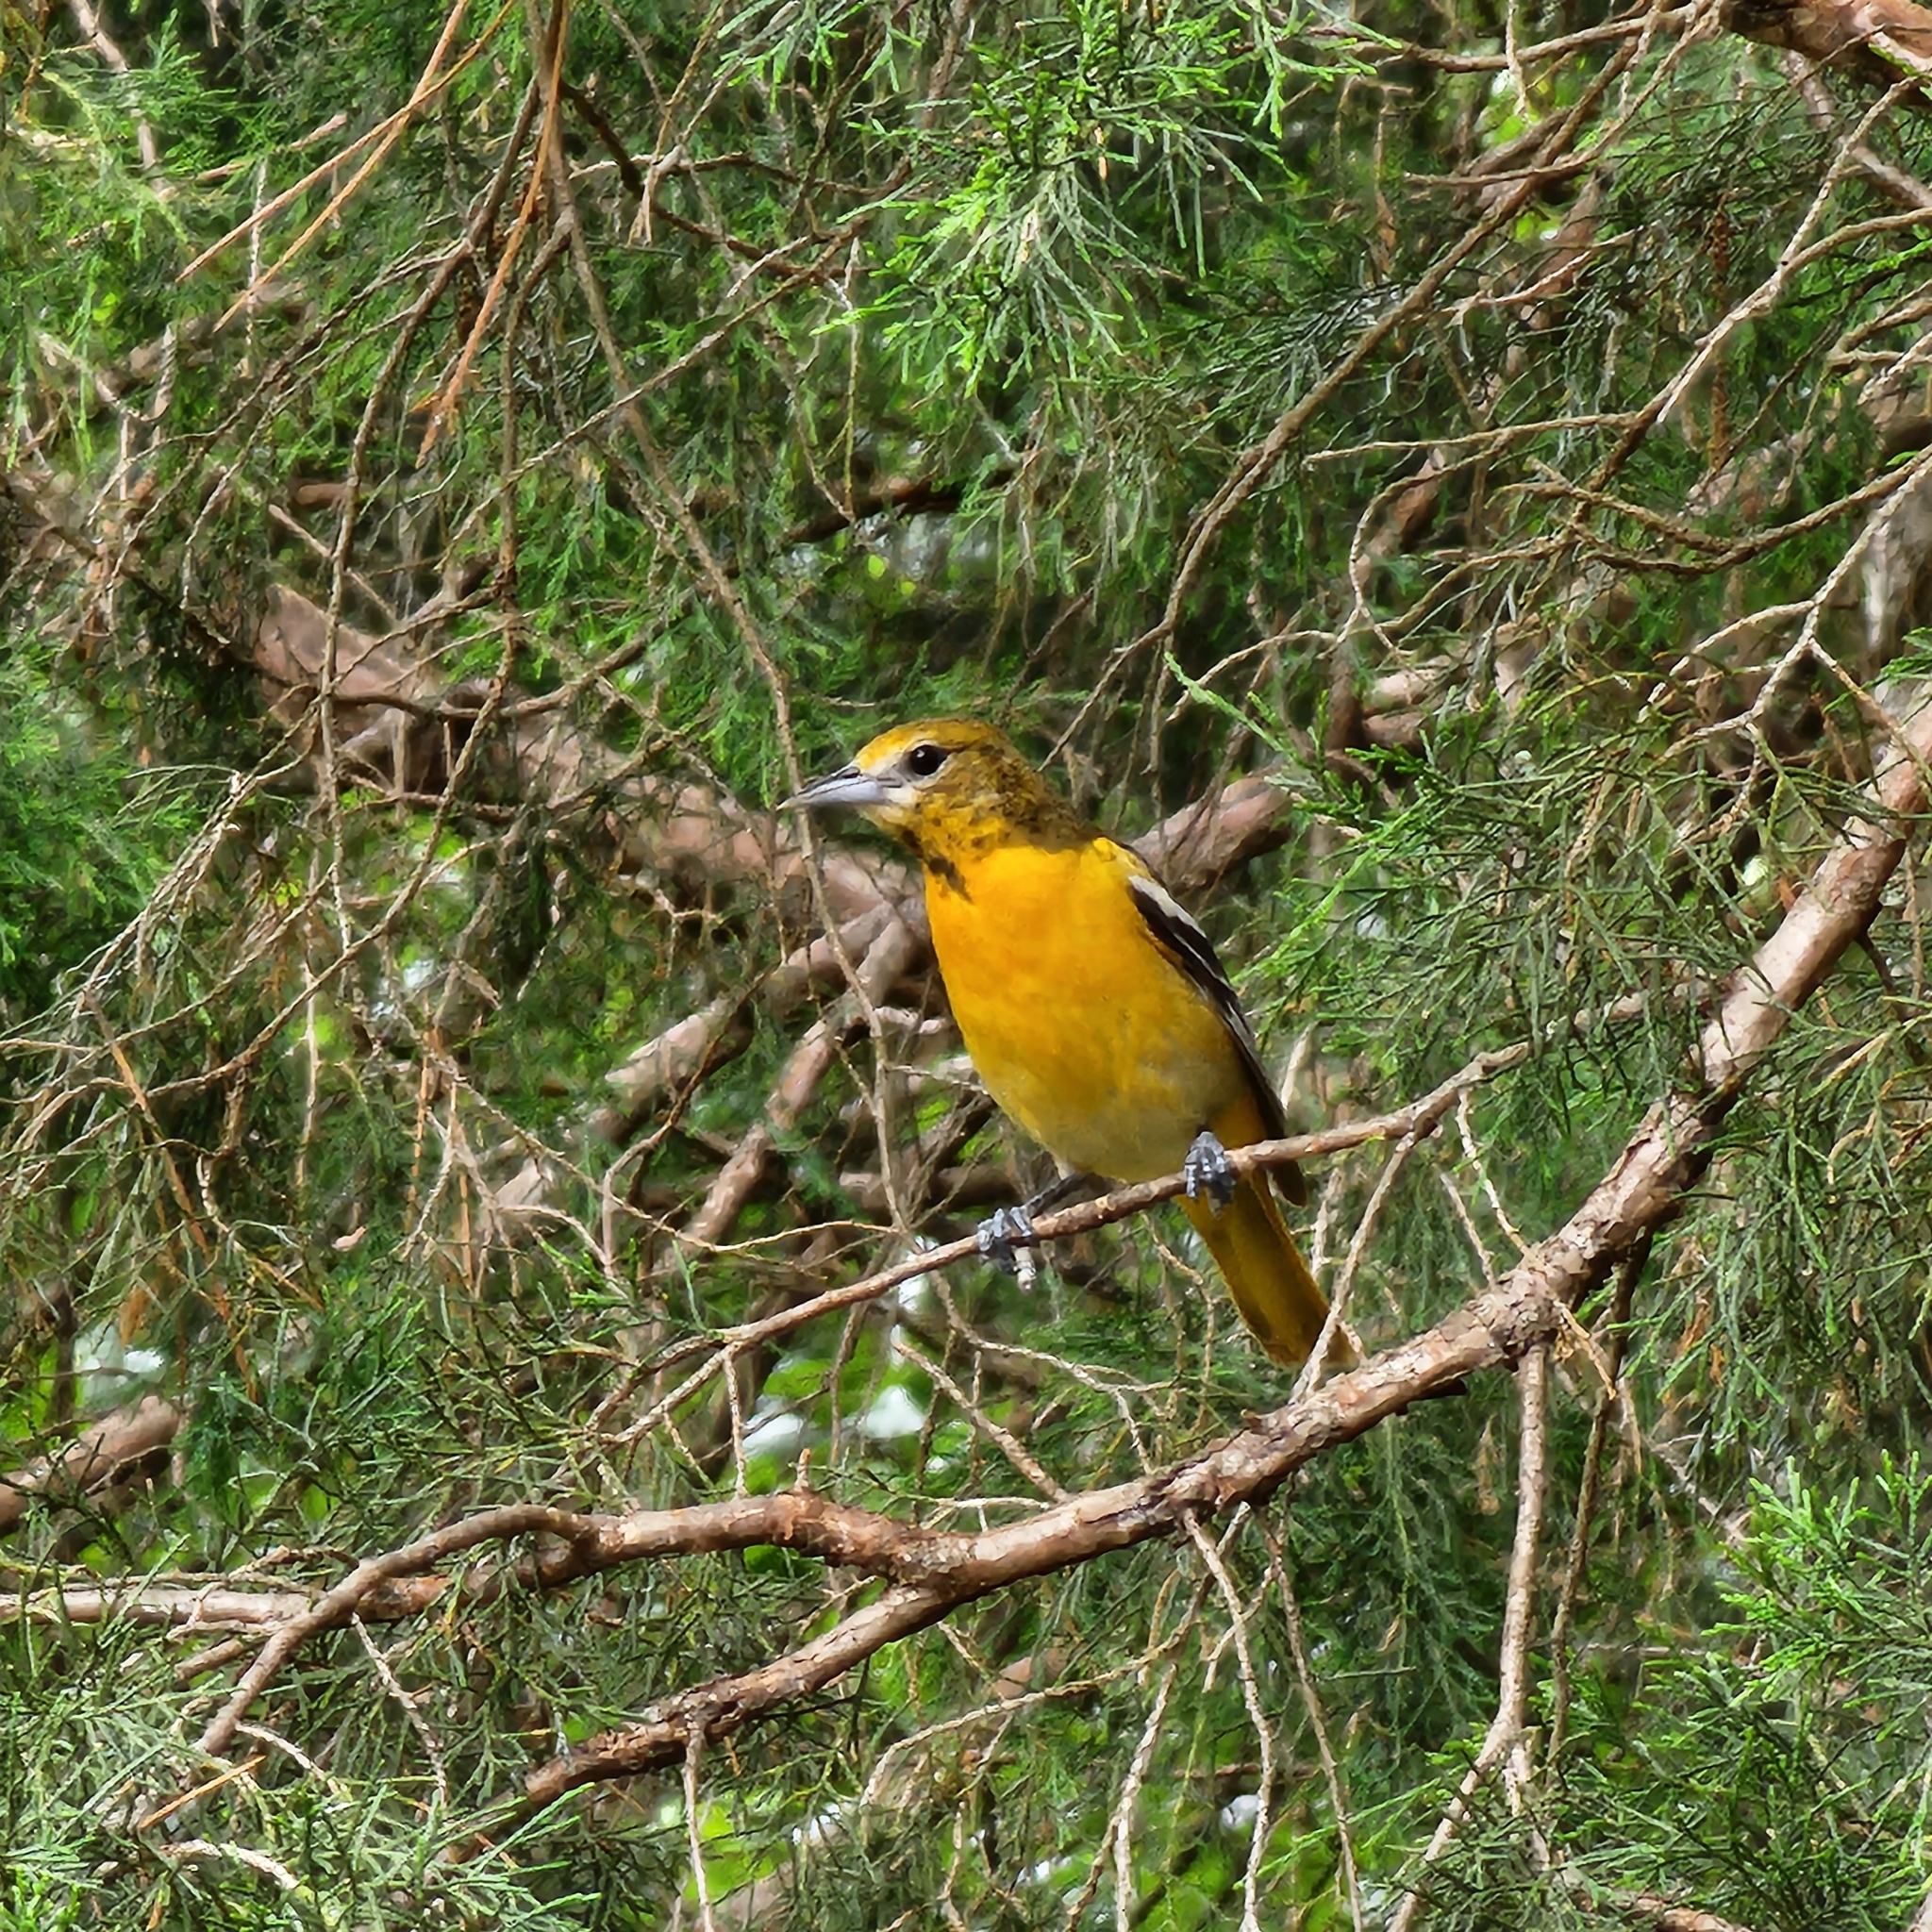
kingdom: Animalia
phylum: Chordata
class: Aves
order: Passeriformes
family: Icteridae
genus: Icterus
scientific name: Icterus galbula
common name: Baltimore oriole
